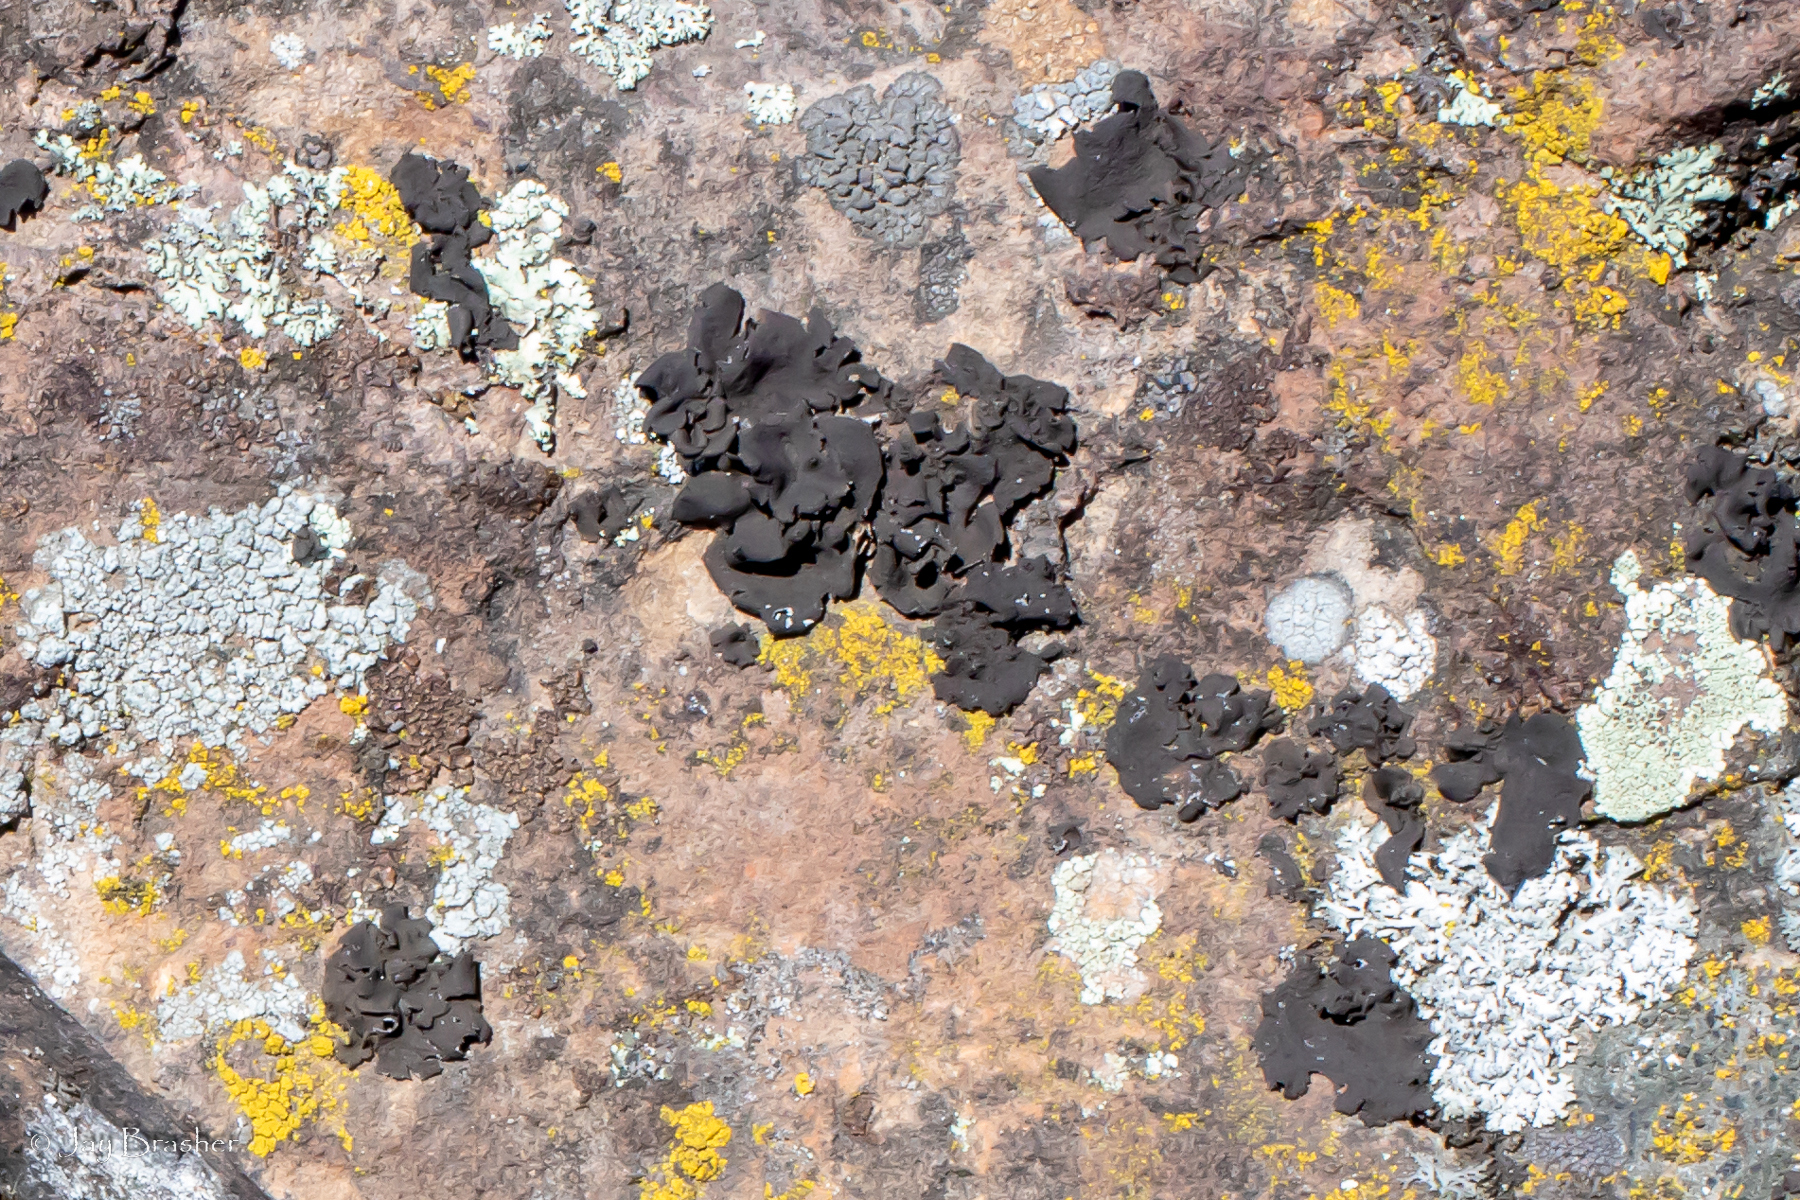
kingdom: Fungi
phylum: Ascomycota
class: Lecanoromycetes
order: Umbilicariales
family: Umbilicariaceae
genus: Umbilicaria
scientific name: Umbilicaria deusta
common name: Peppered rock tripe
